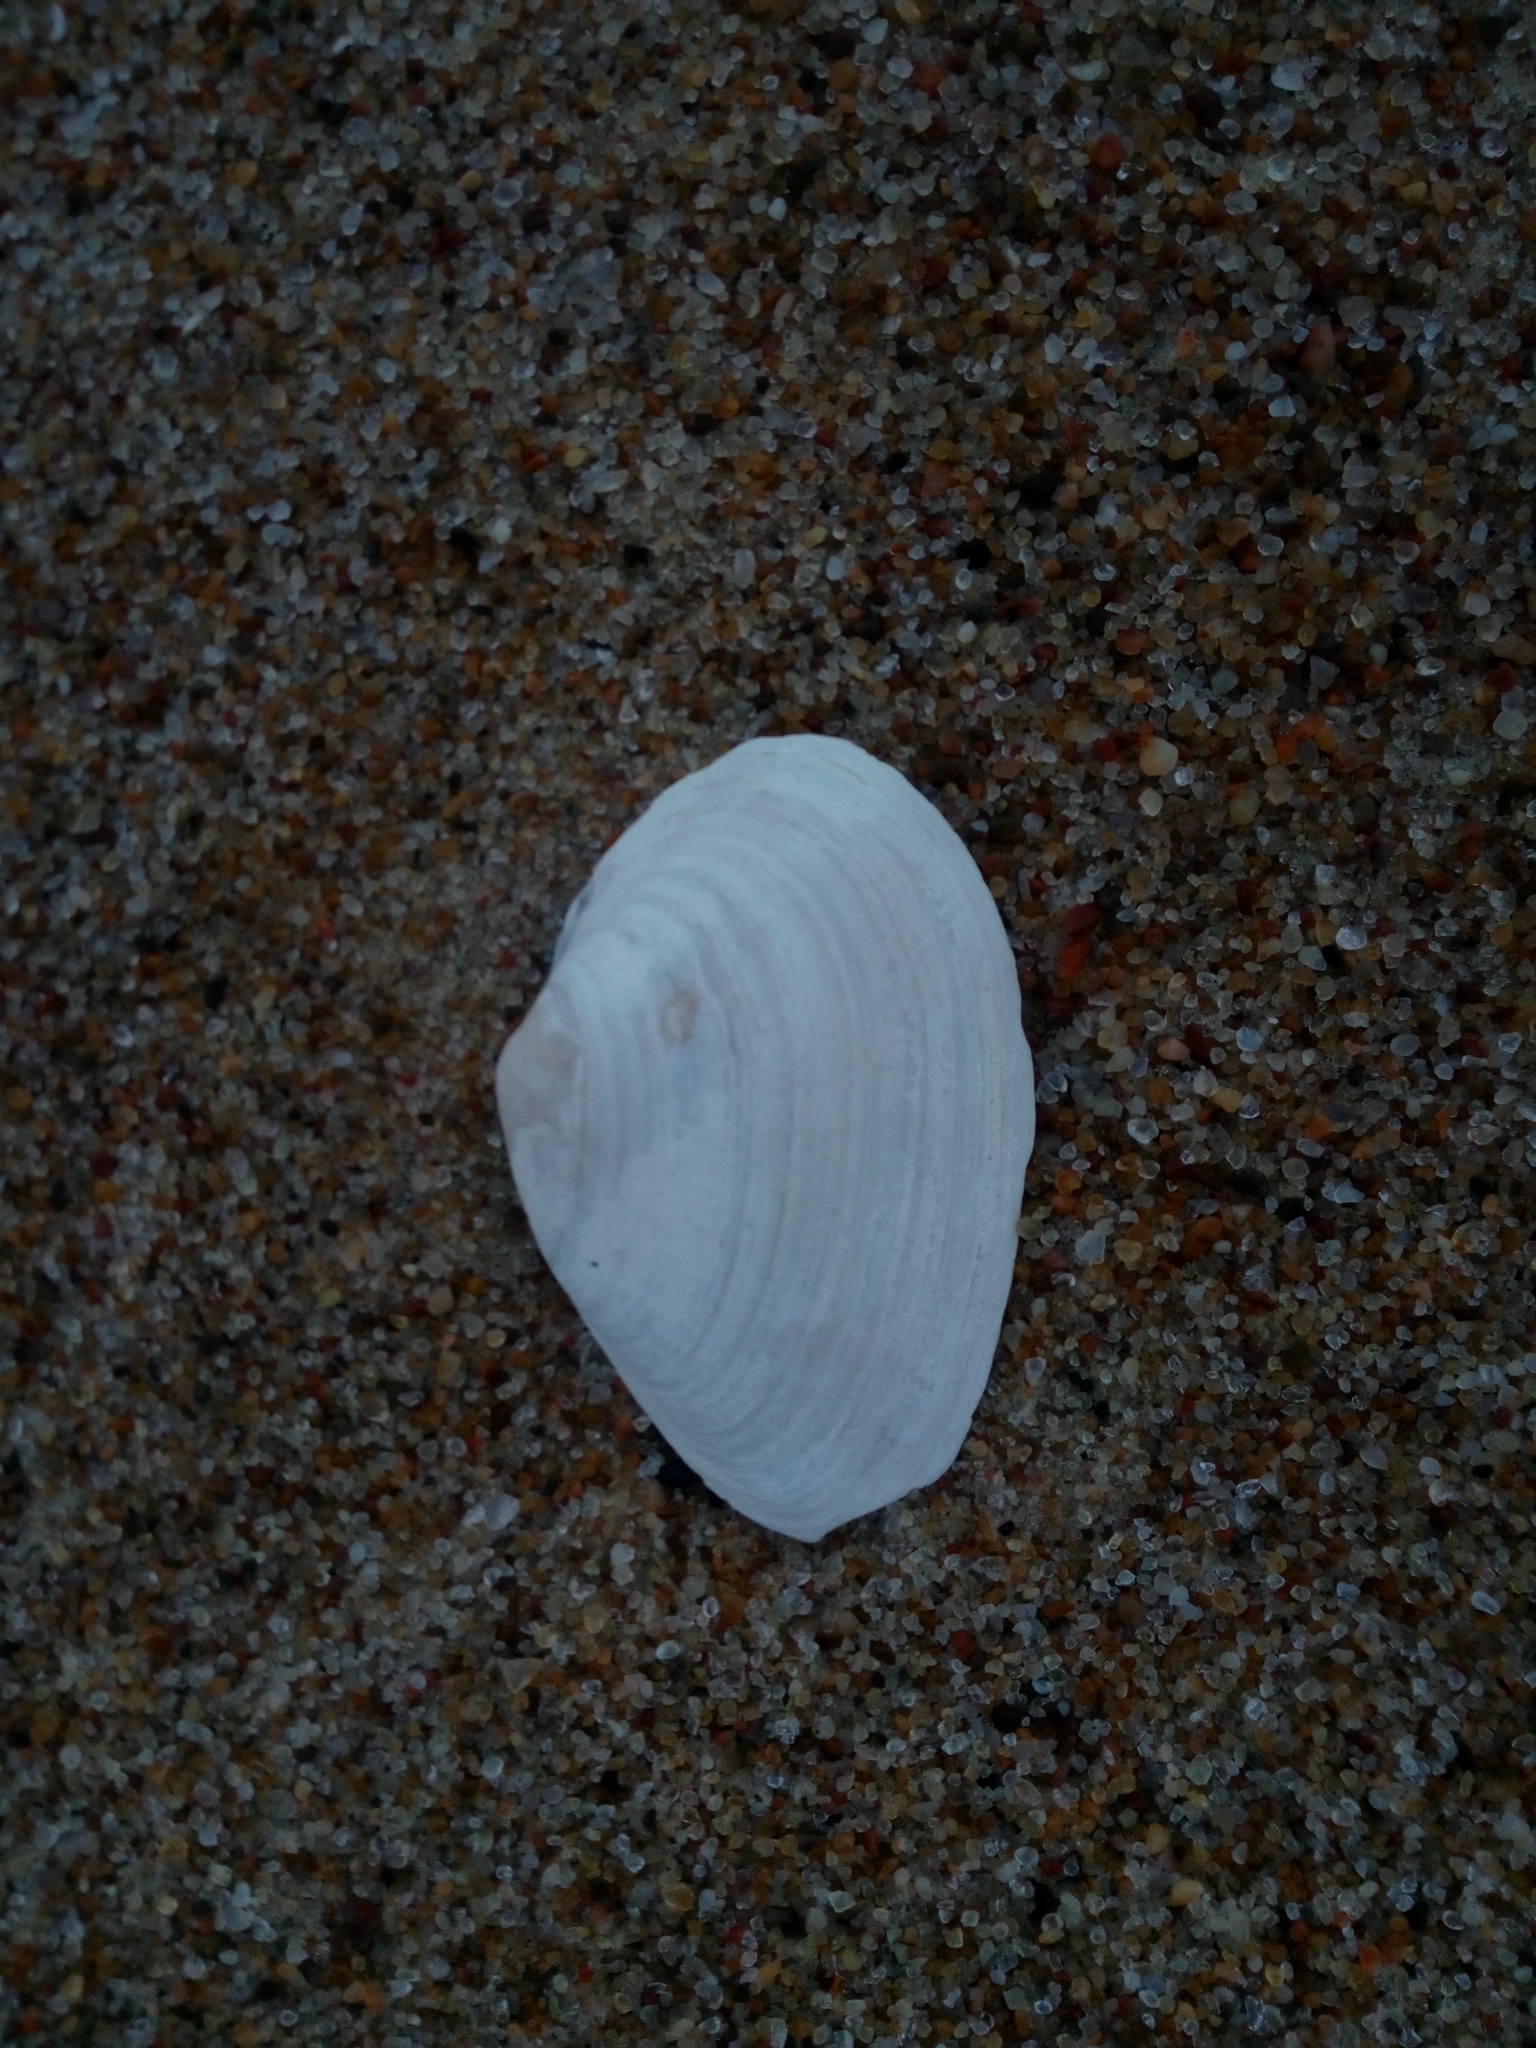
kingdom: Animalia
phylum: Mollusca
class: Bivalvia
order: Myida
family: Myidae
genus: Mya
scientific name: Mya arenaria
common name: Soft-shelled clam
